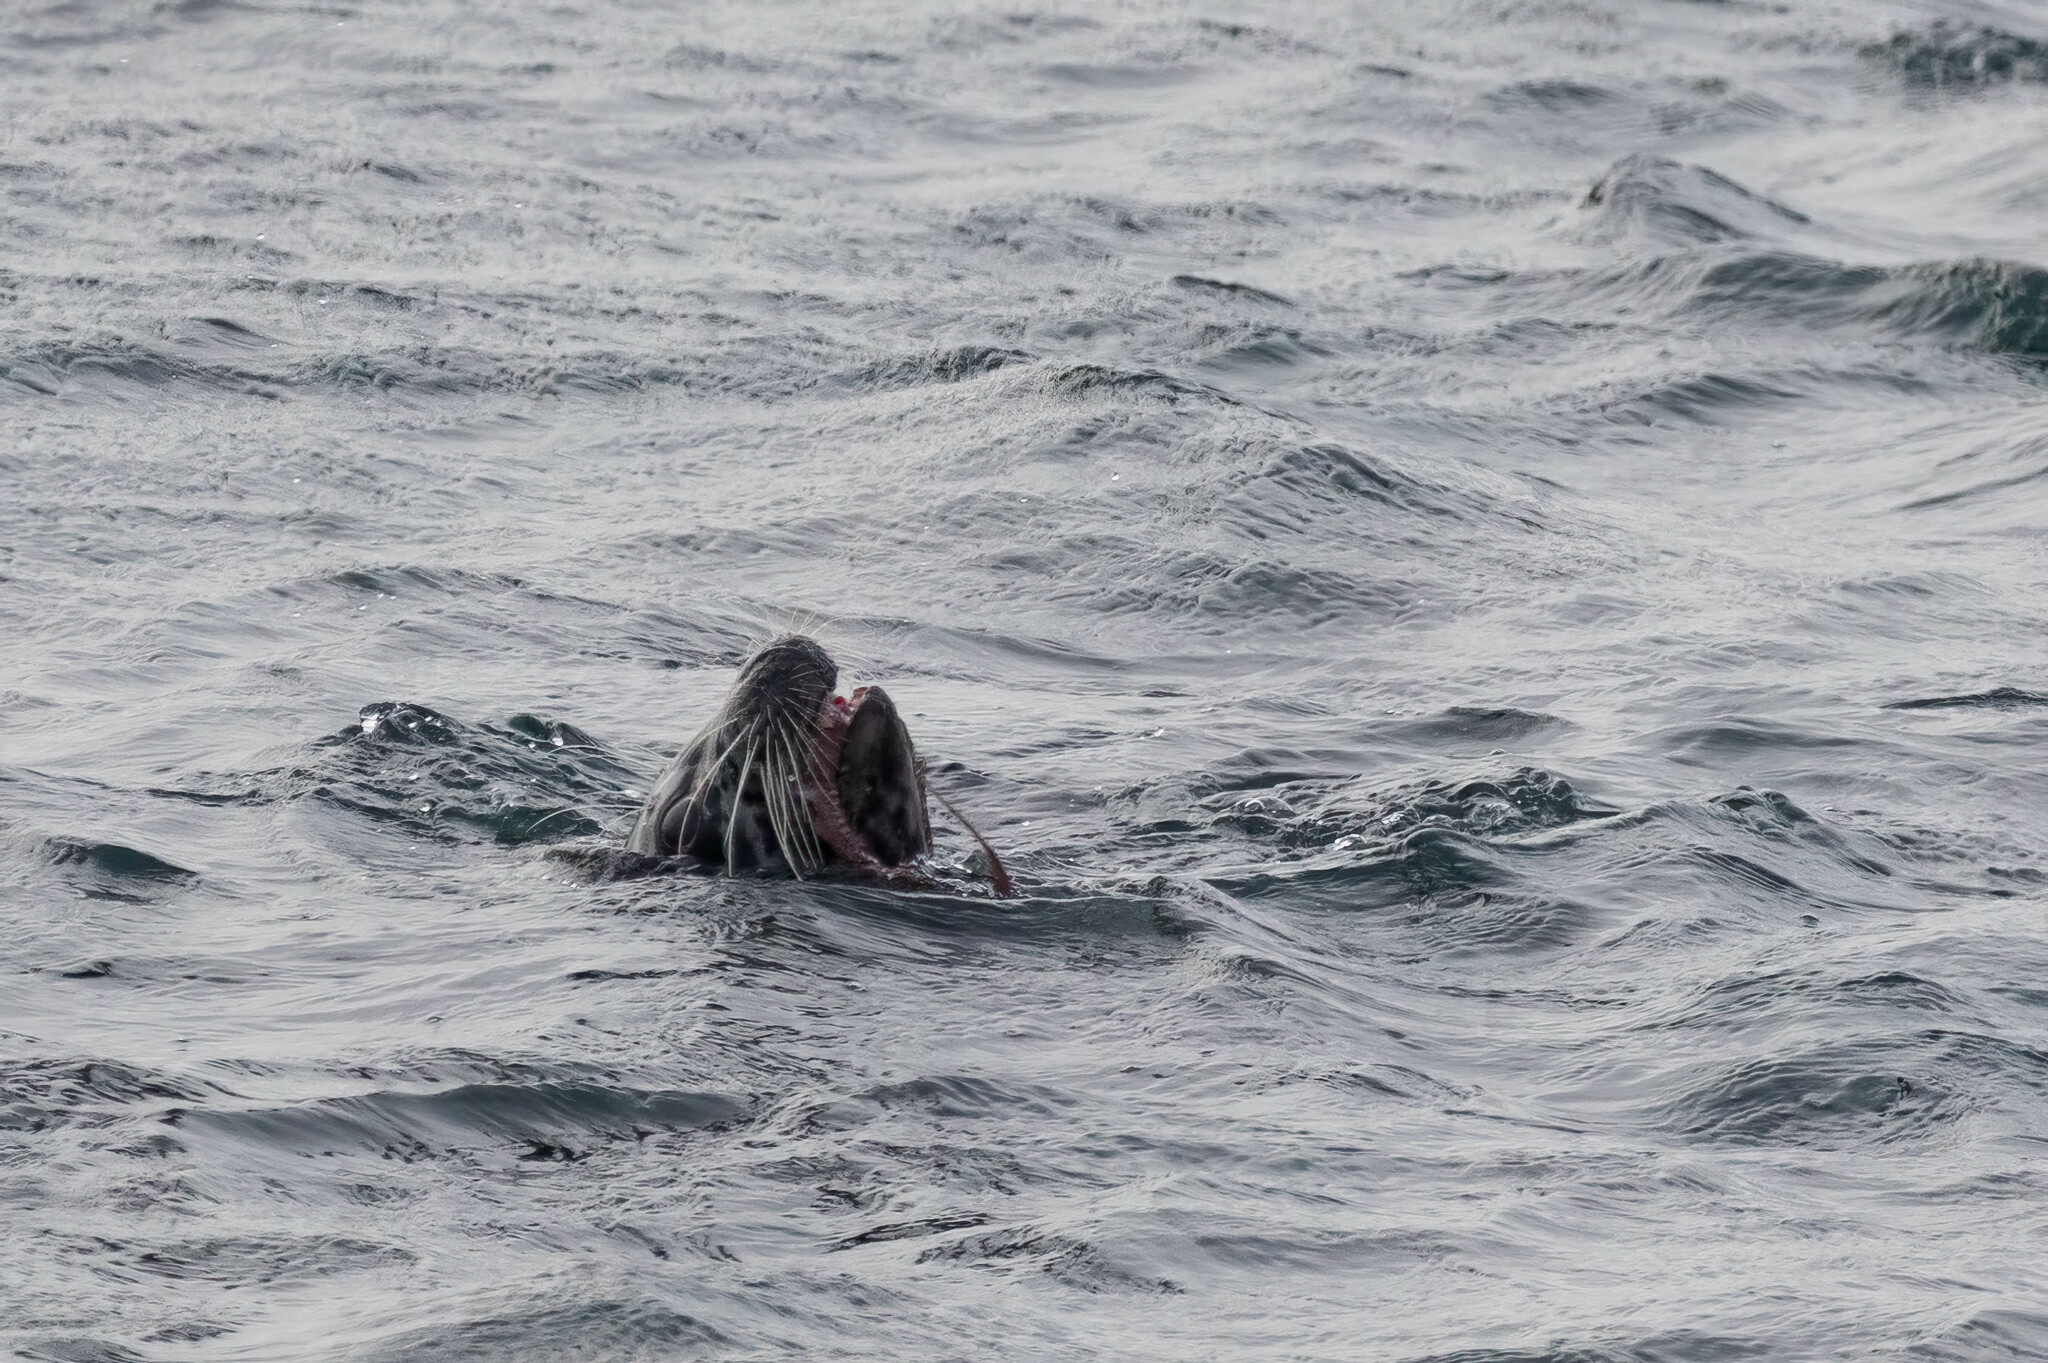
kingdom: Animalia
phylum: Chordata
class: Mammalia
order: Carnivora
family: Phocidae
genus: Phoca
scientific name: Phoca vitulina
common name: Harbor seal
